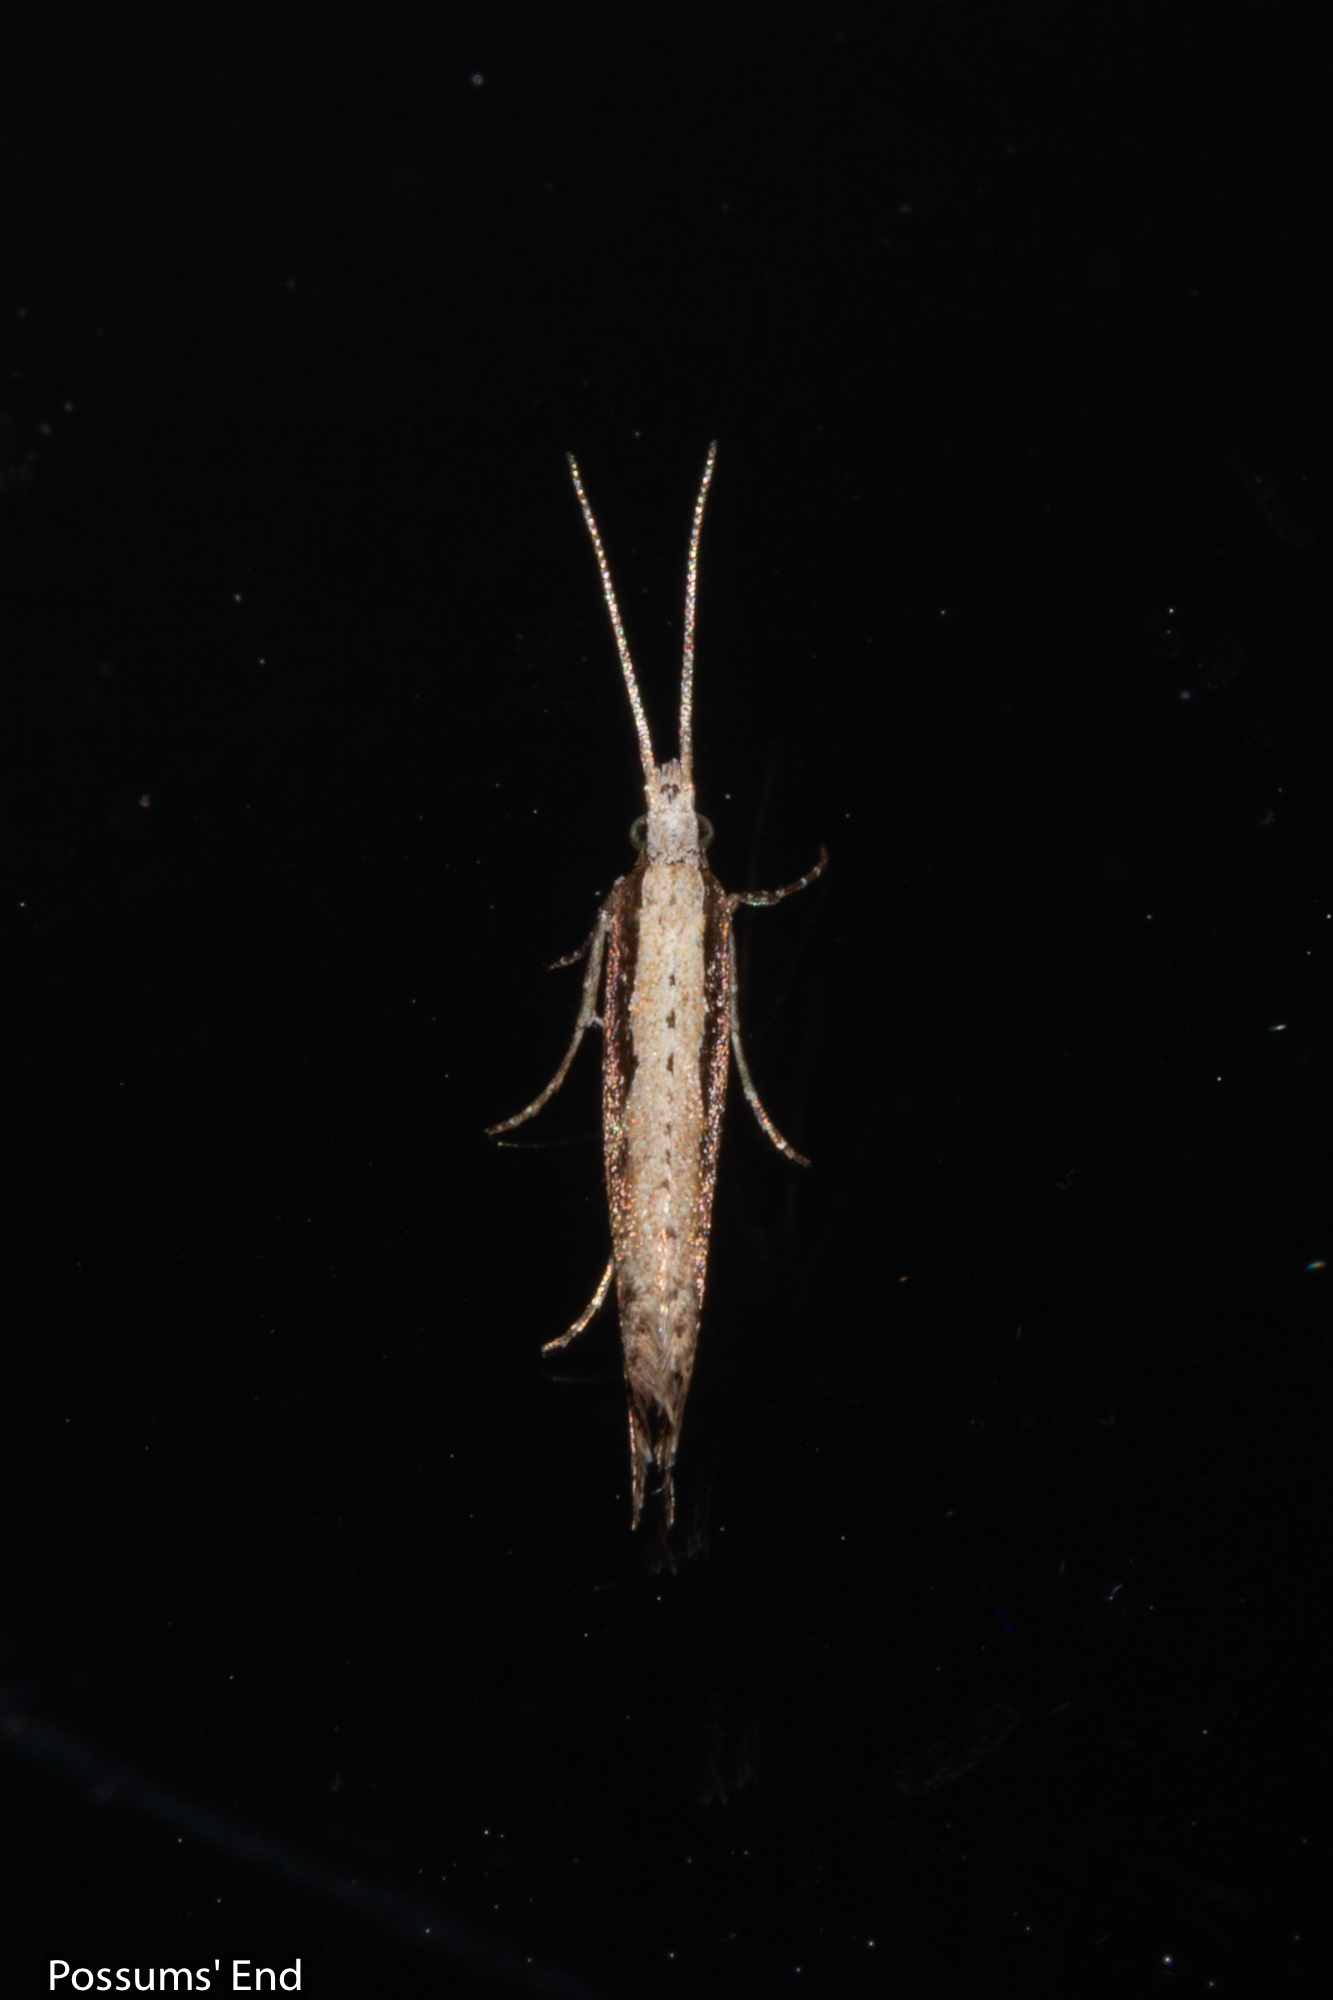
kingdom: Animalia
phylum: Arthropoda
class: Insecta
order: Lepidoptera
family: Plutellidae
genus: Plutella
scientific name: Plutella xylostella
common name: Diamond-back moth
